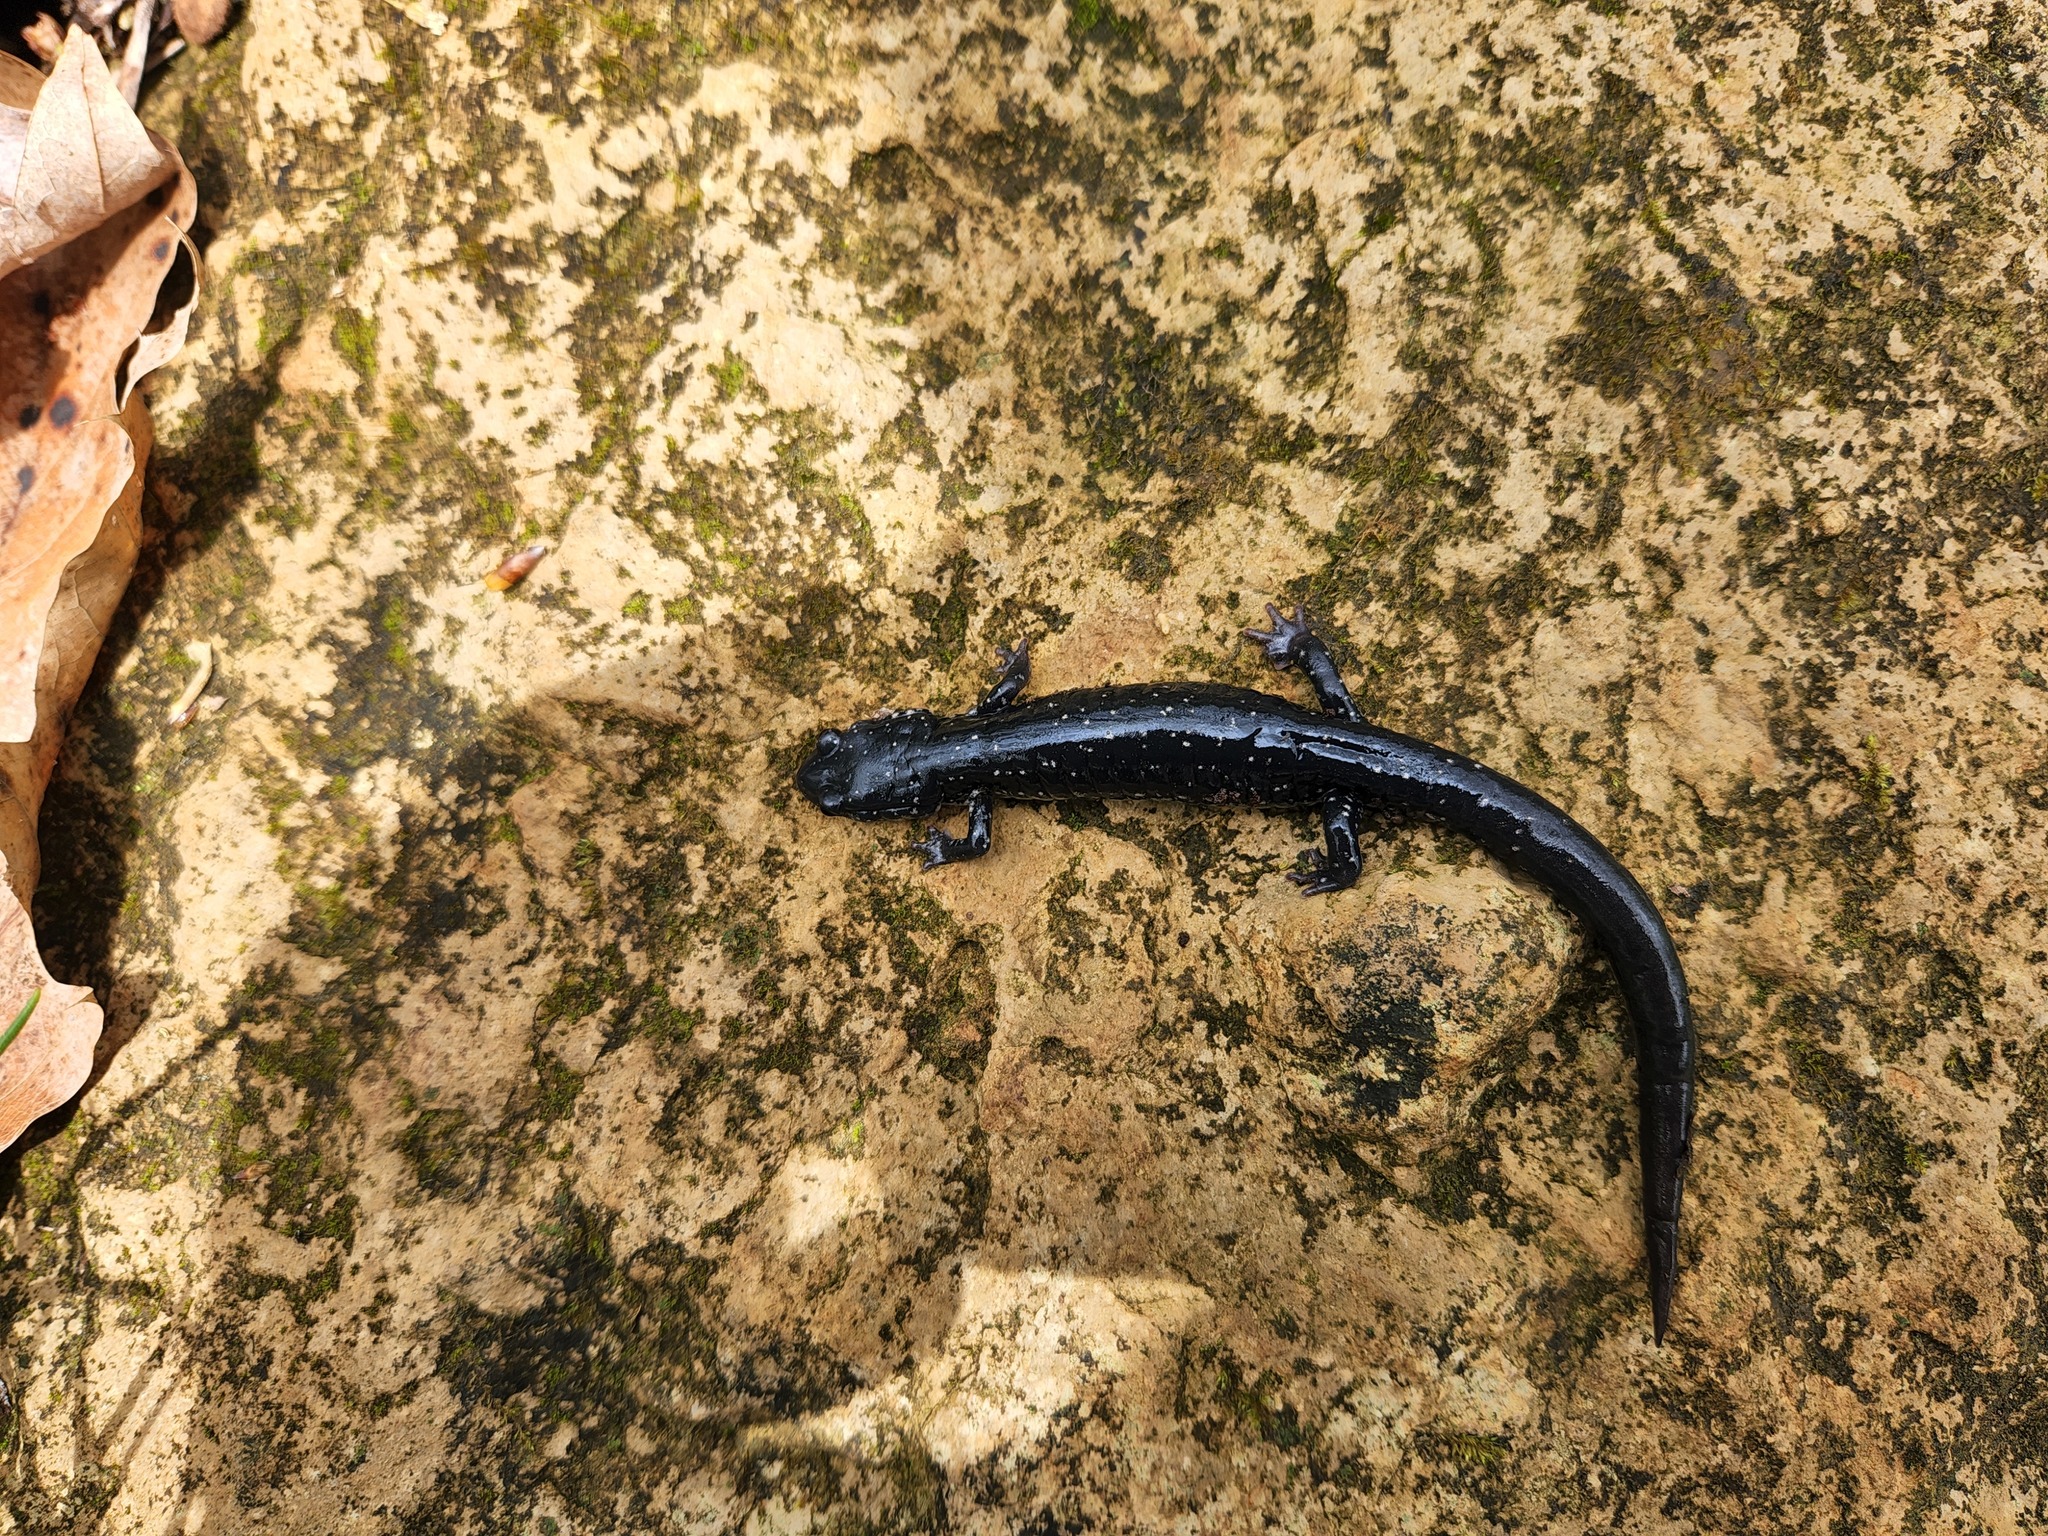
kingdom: Animalia
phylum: Chordata
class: Amphibia
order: Caudata
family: Plethodontidae
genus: Plethodon
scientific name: Plethodon glutinosus
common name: Northern slimy salamander
